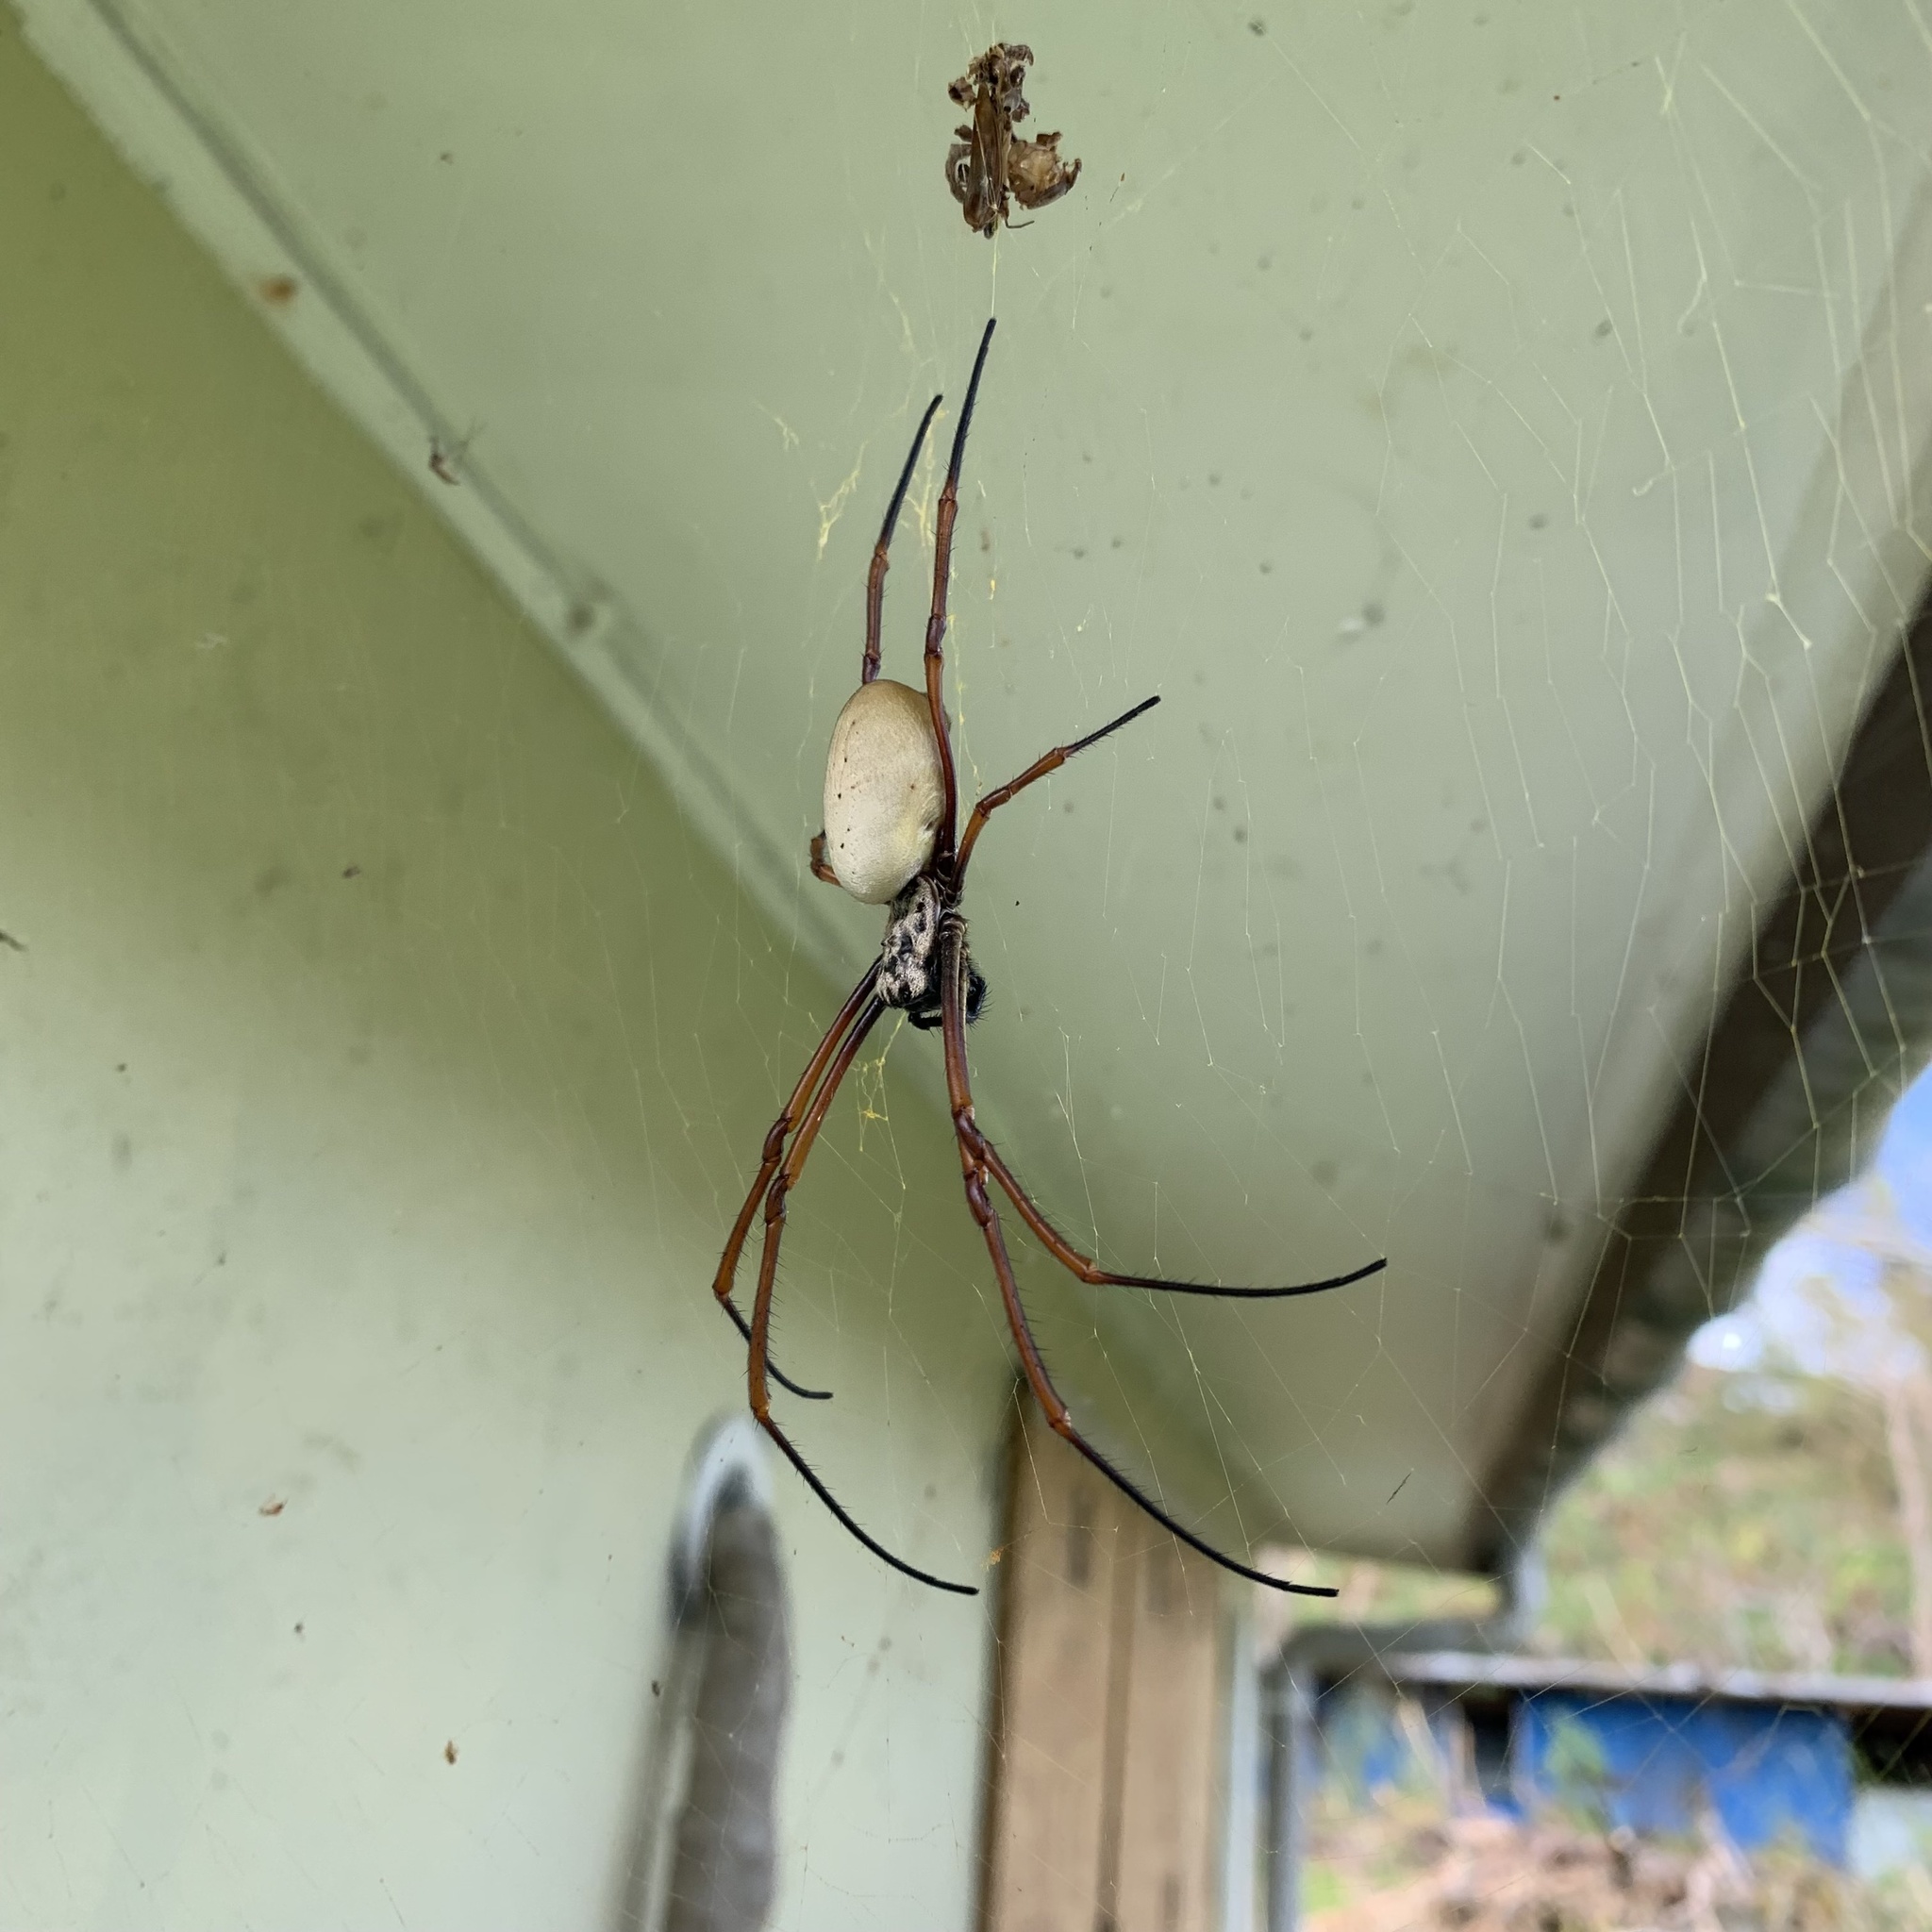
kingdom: Animalia
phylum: Arthropoda
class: Arachnida
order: Araneae
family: Araneidae
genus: Trichonephila
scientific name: Trichonephila plumipes
